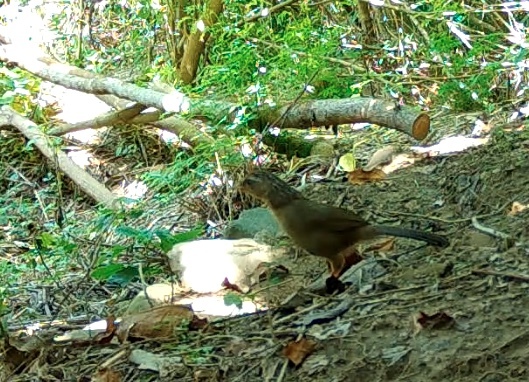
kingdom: Animalia
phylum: Chordata
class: Aves
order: Passeriformes
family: Leiothrichidae
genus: Garrulax
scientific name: Garrulax canorus
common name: Chinese hwamei
